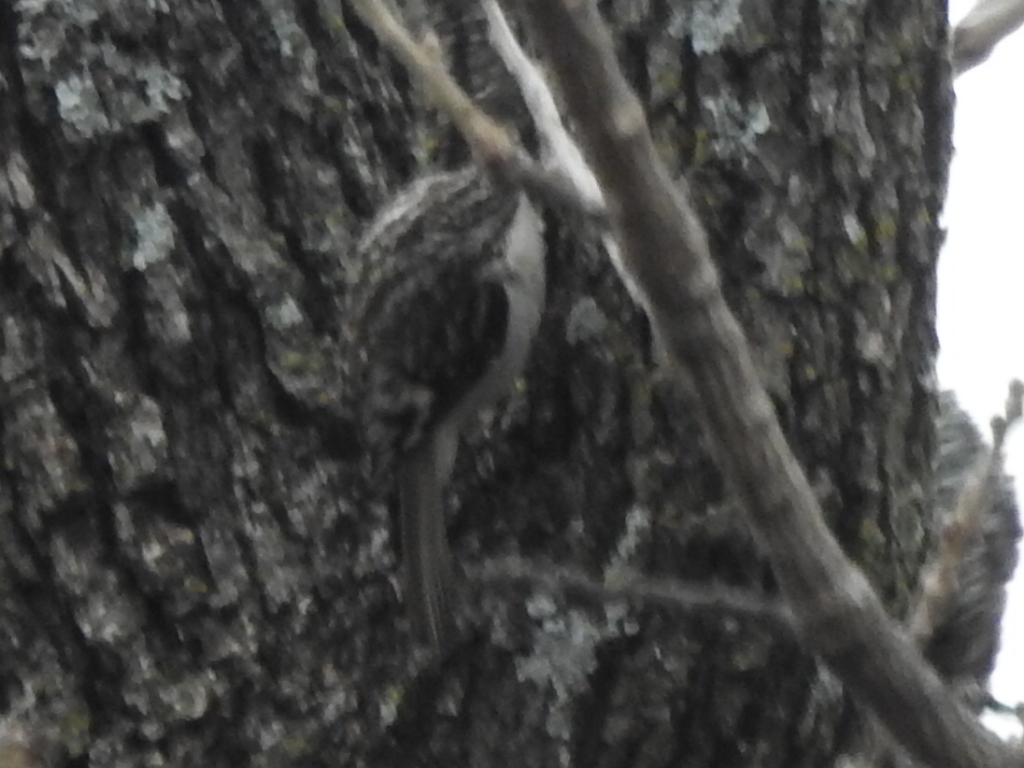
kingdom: Animalia
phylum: Chordata
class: Aves
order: Passeriformes
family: Certhiidae
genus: Certhia
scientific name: Certhia americana
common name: Brown creeper
